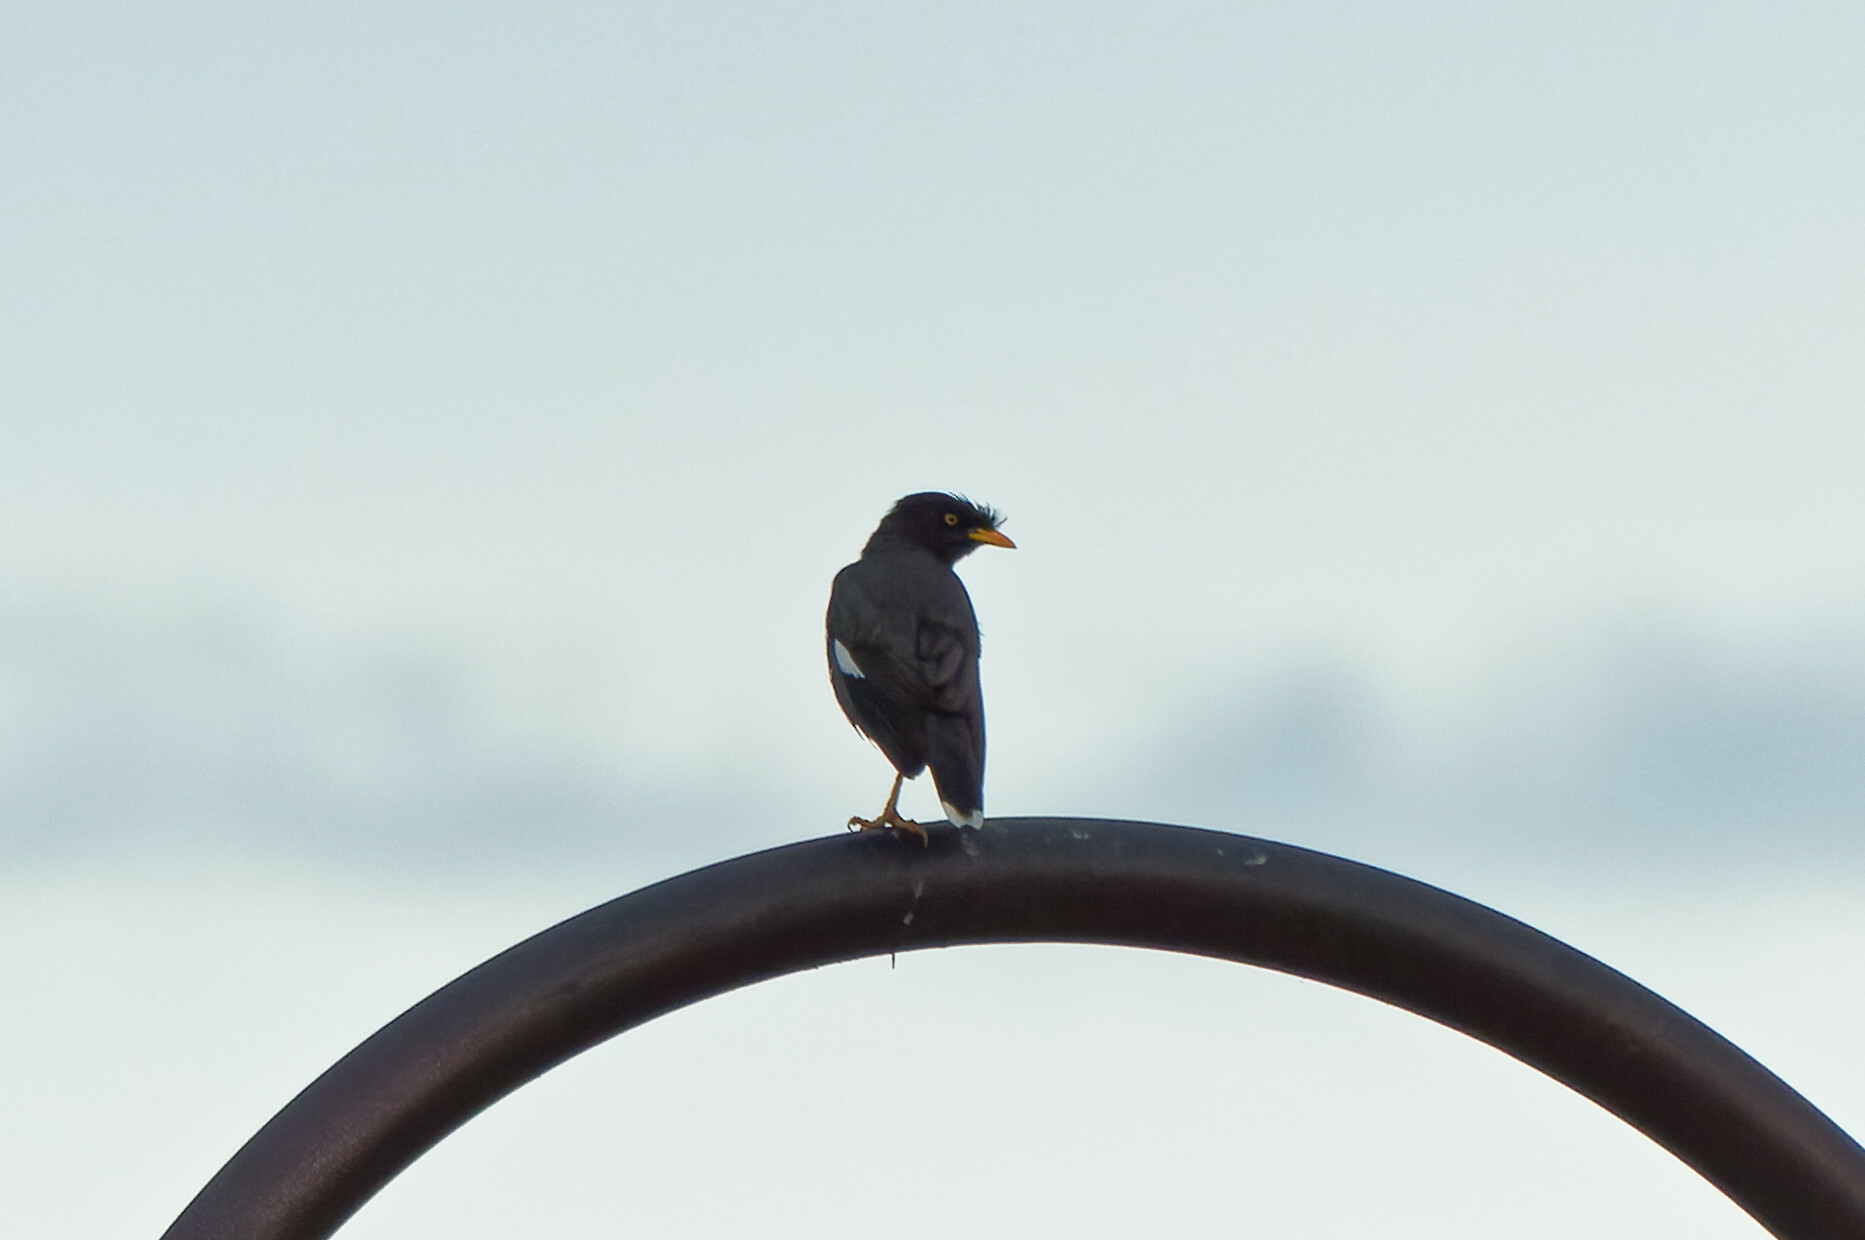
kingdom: Animalia
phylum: Chordata
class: Aves
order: Passeriformes
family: Sturnidae
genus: Acridotheres
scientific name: Acridotheres javanicus
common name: Javan myna
